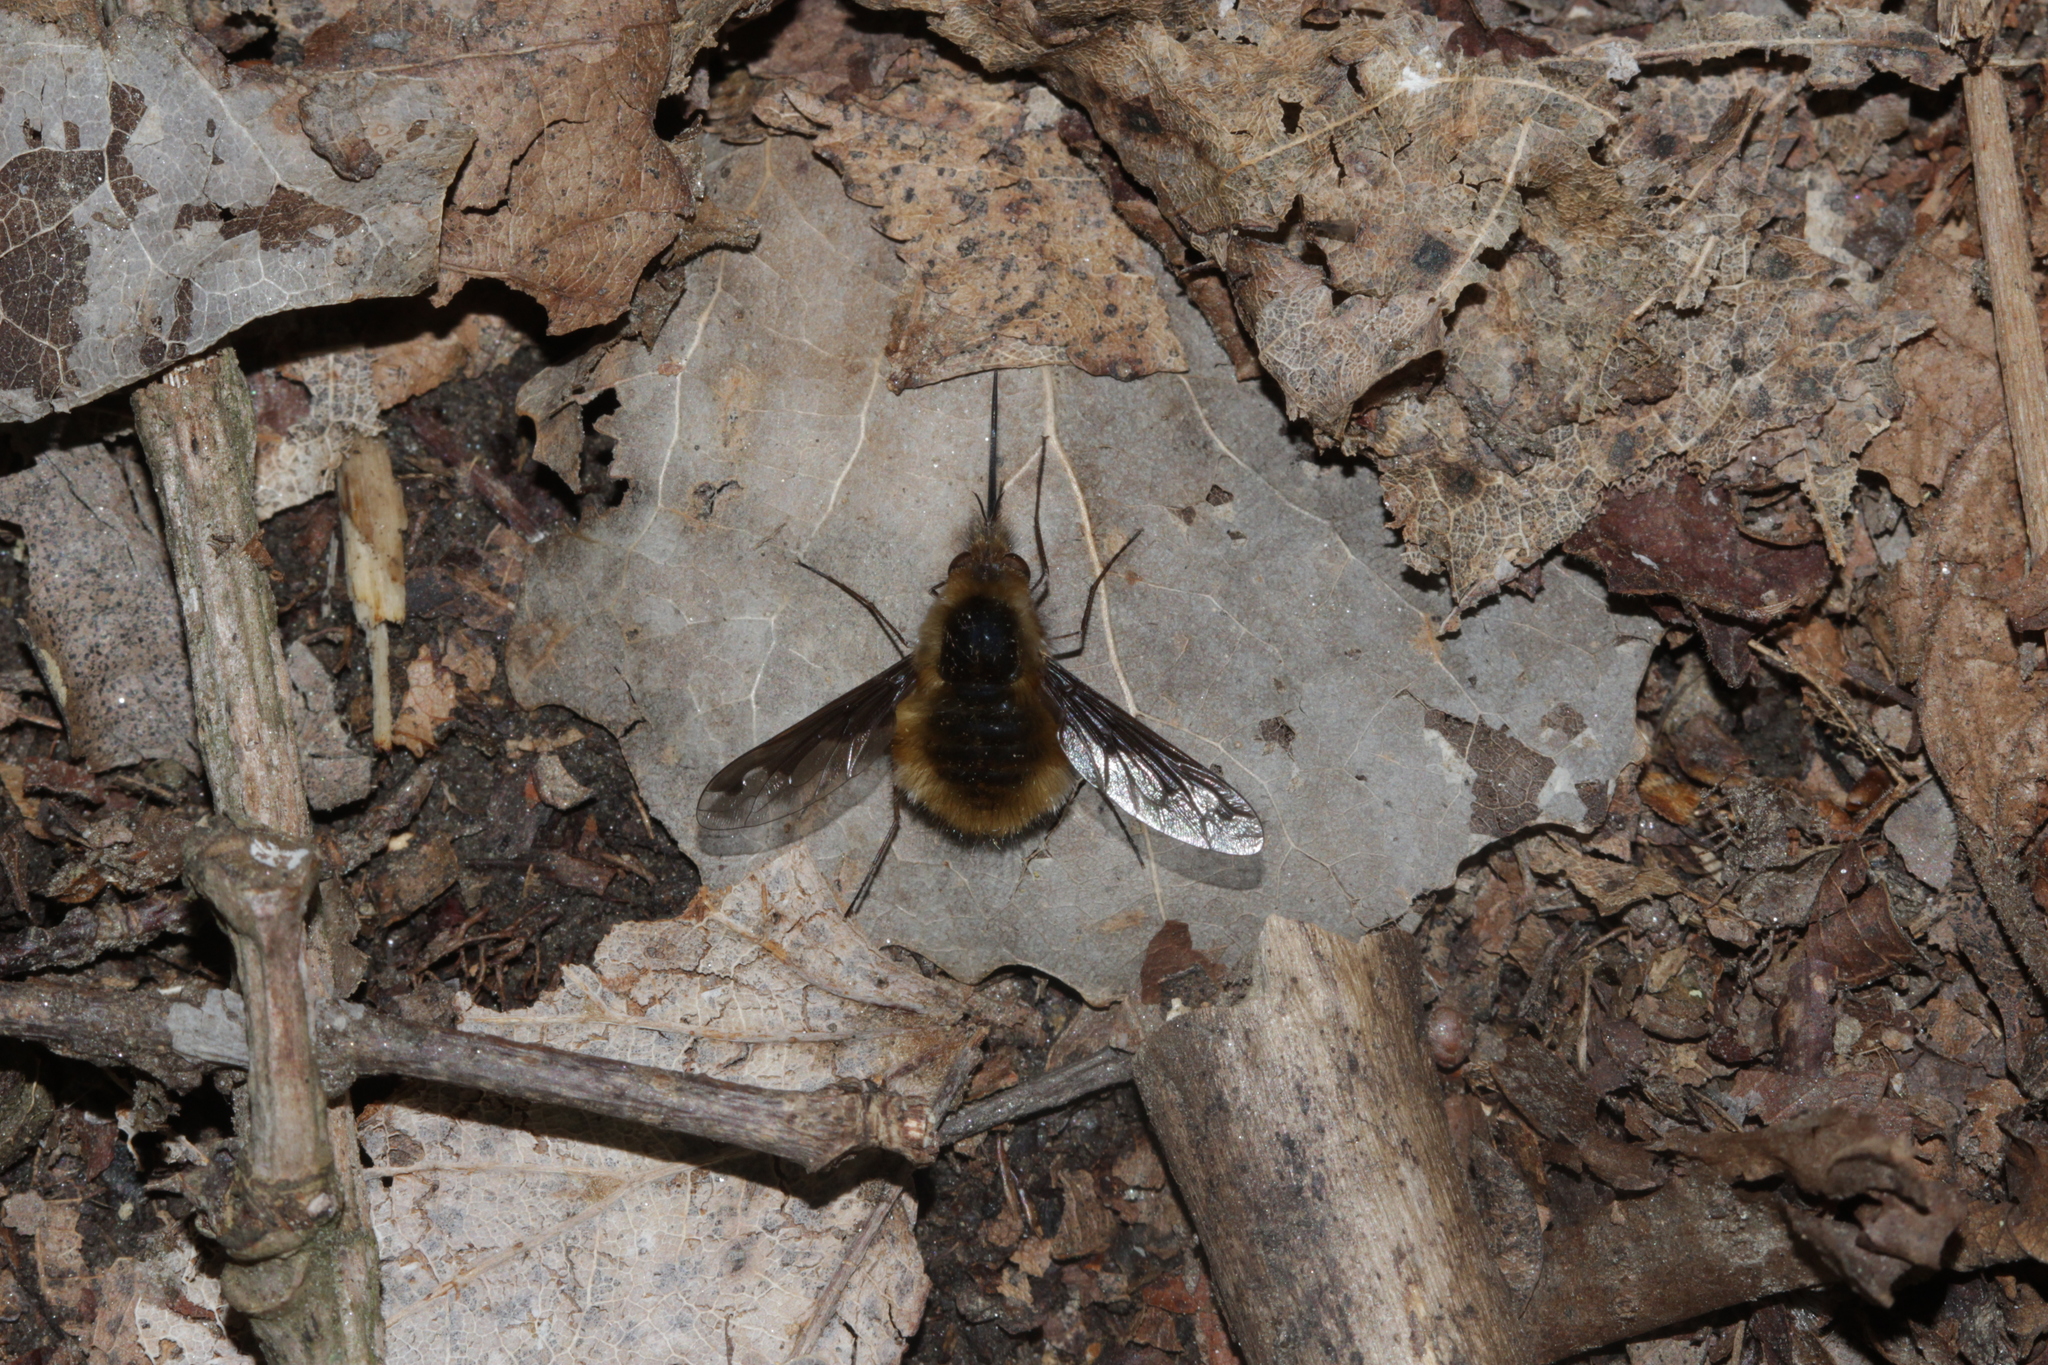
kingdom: Animalia
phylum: Arthropoda
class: Insecta
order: Diptera
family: Bombyliidae
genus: Bombylius
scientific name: Bombylius major
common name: Bee fly
